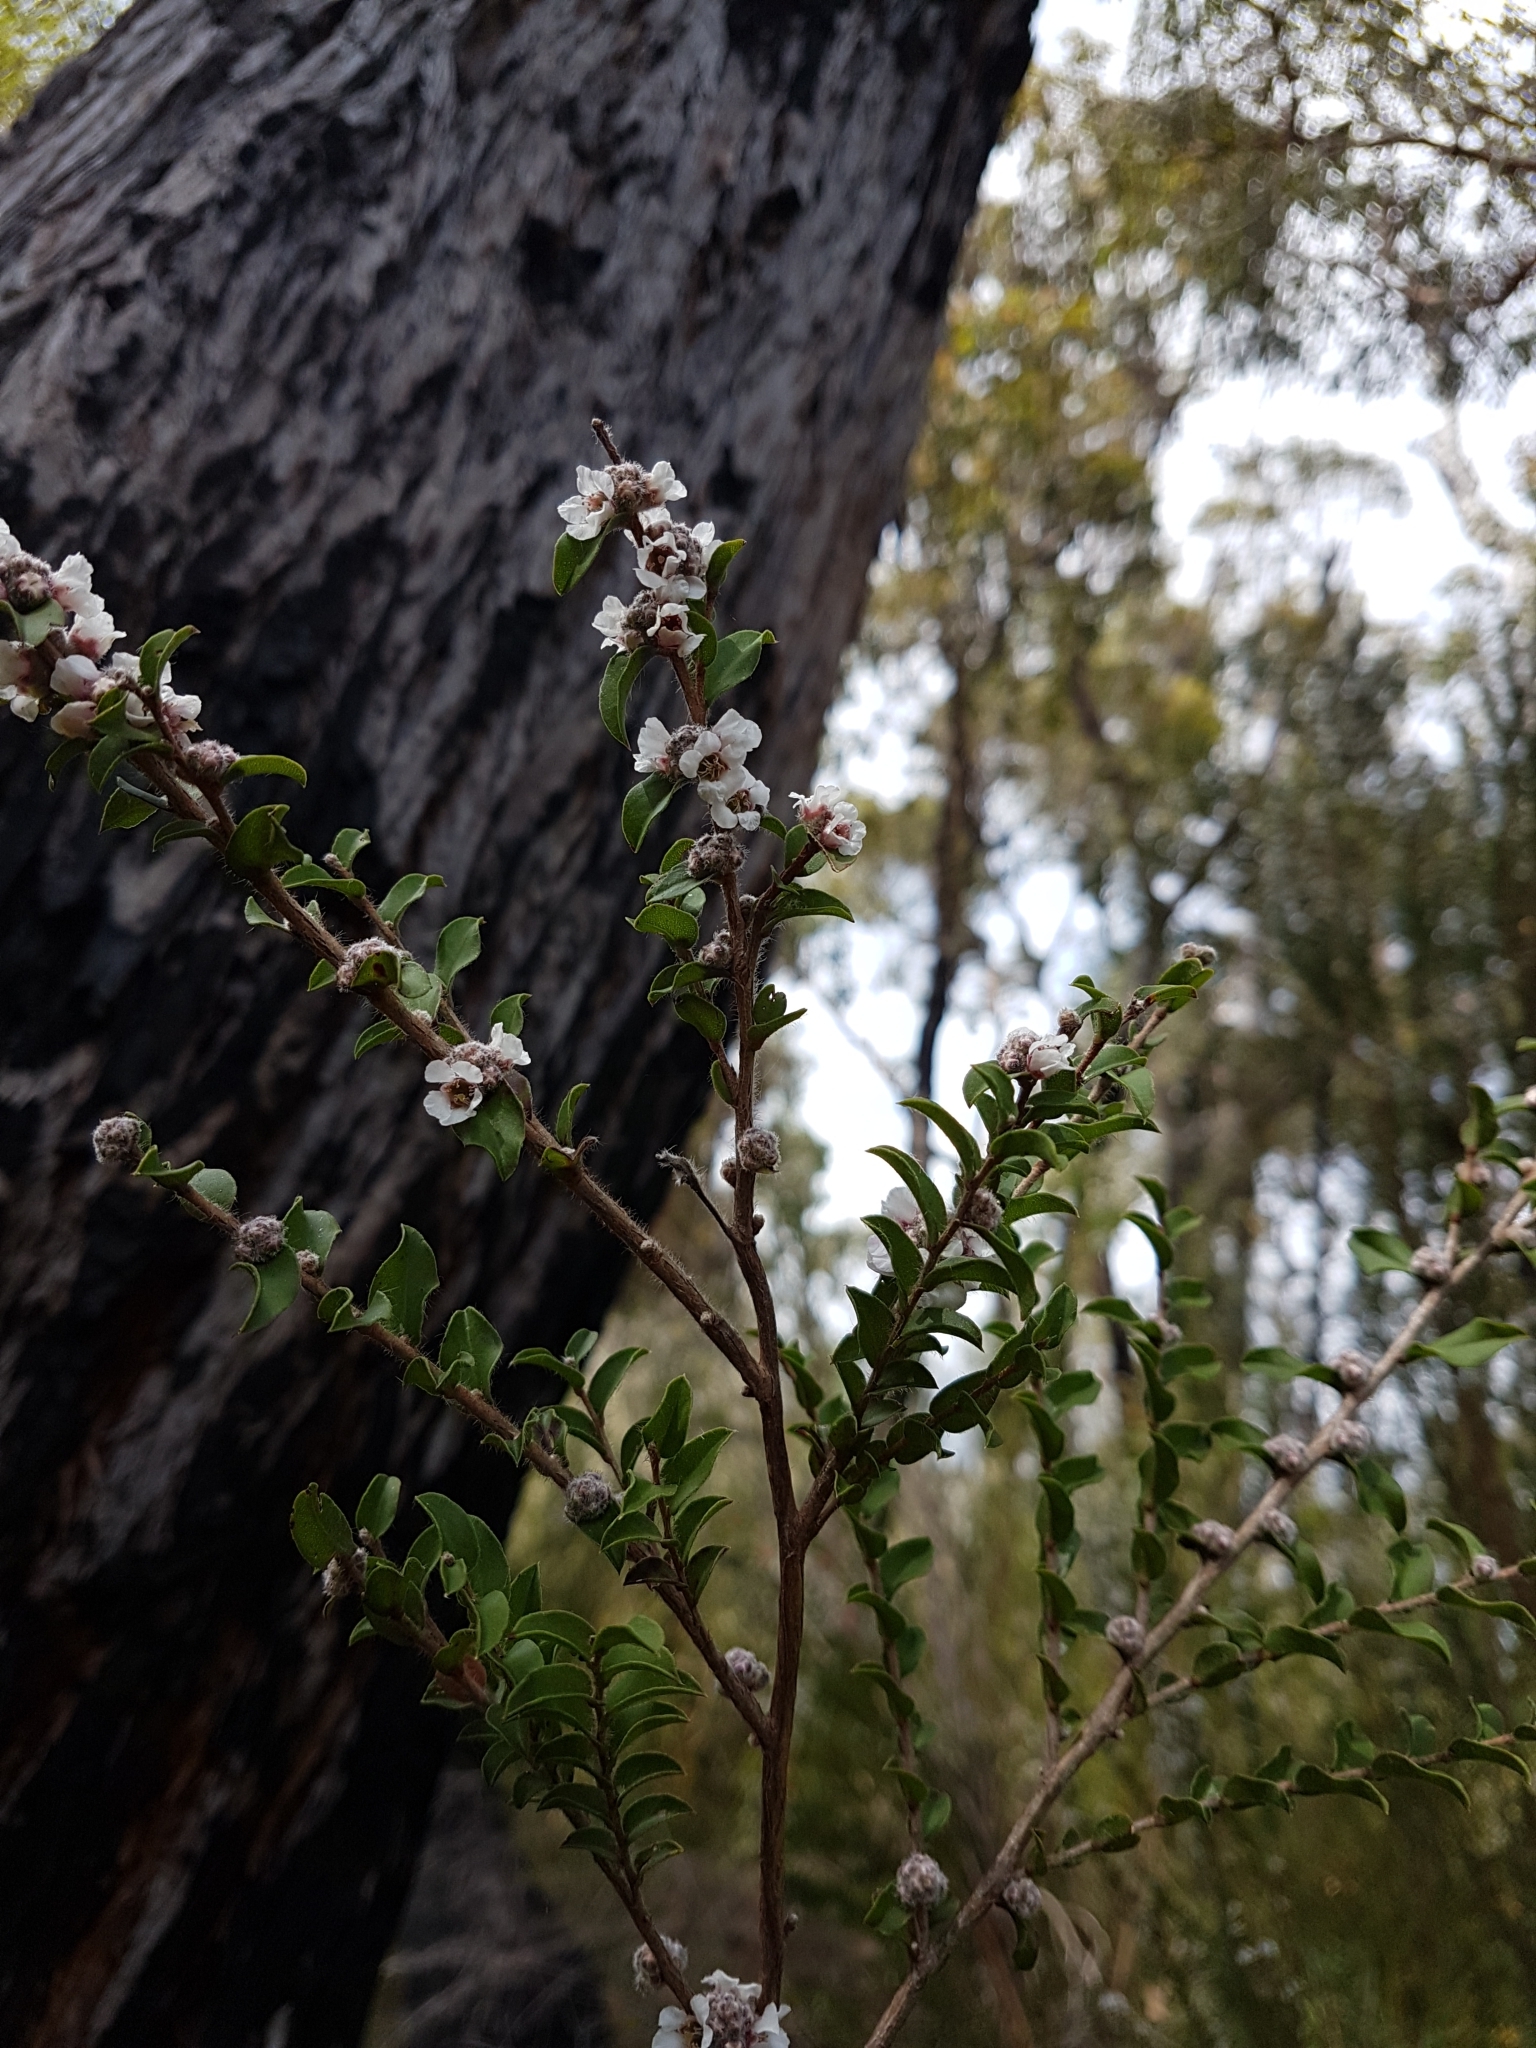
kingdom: Plantae
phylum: Tracheophyta
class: Magnoliopsida
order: Myrtales
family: Myrtaceae
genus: Agonis
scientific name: Agonis theiformis
